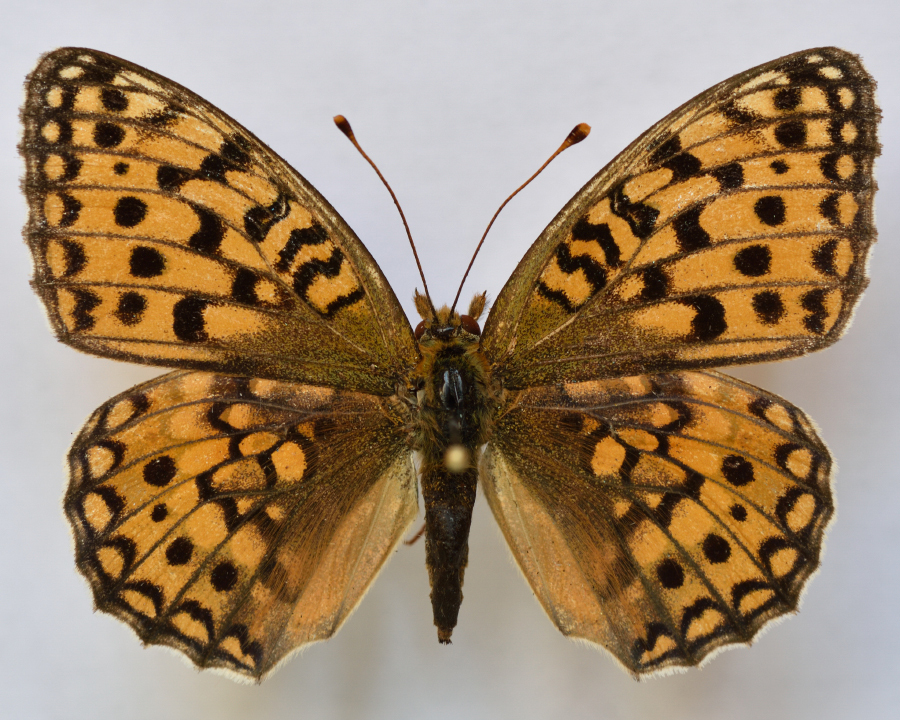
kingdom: Animalia
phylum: Arthropoda
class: Insecta
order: Lepidoptera
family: Nymphalidae
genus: Fabriciana
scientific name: Fabriciana niobe
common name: Niobe fritillary
